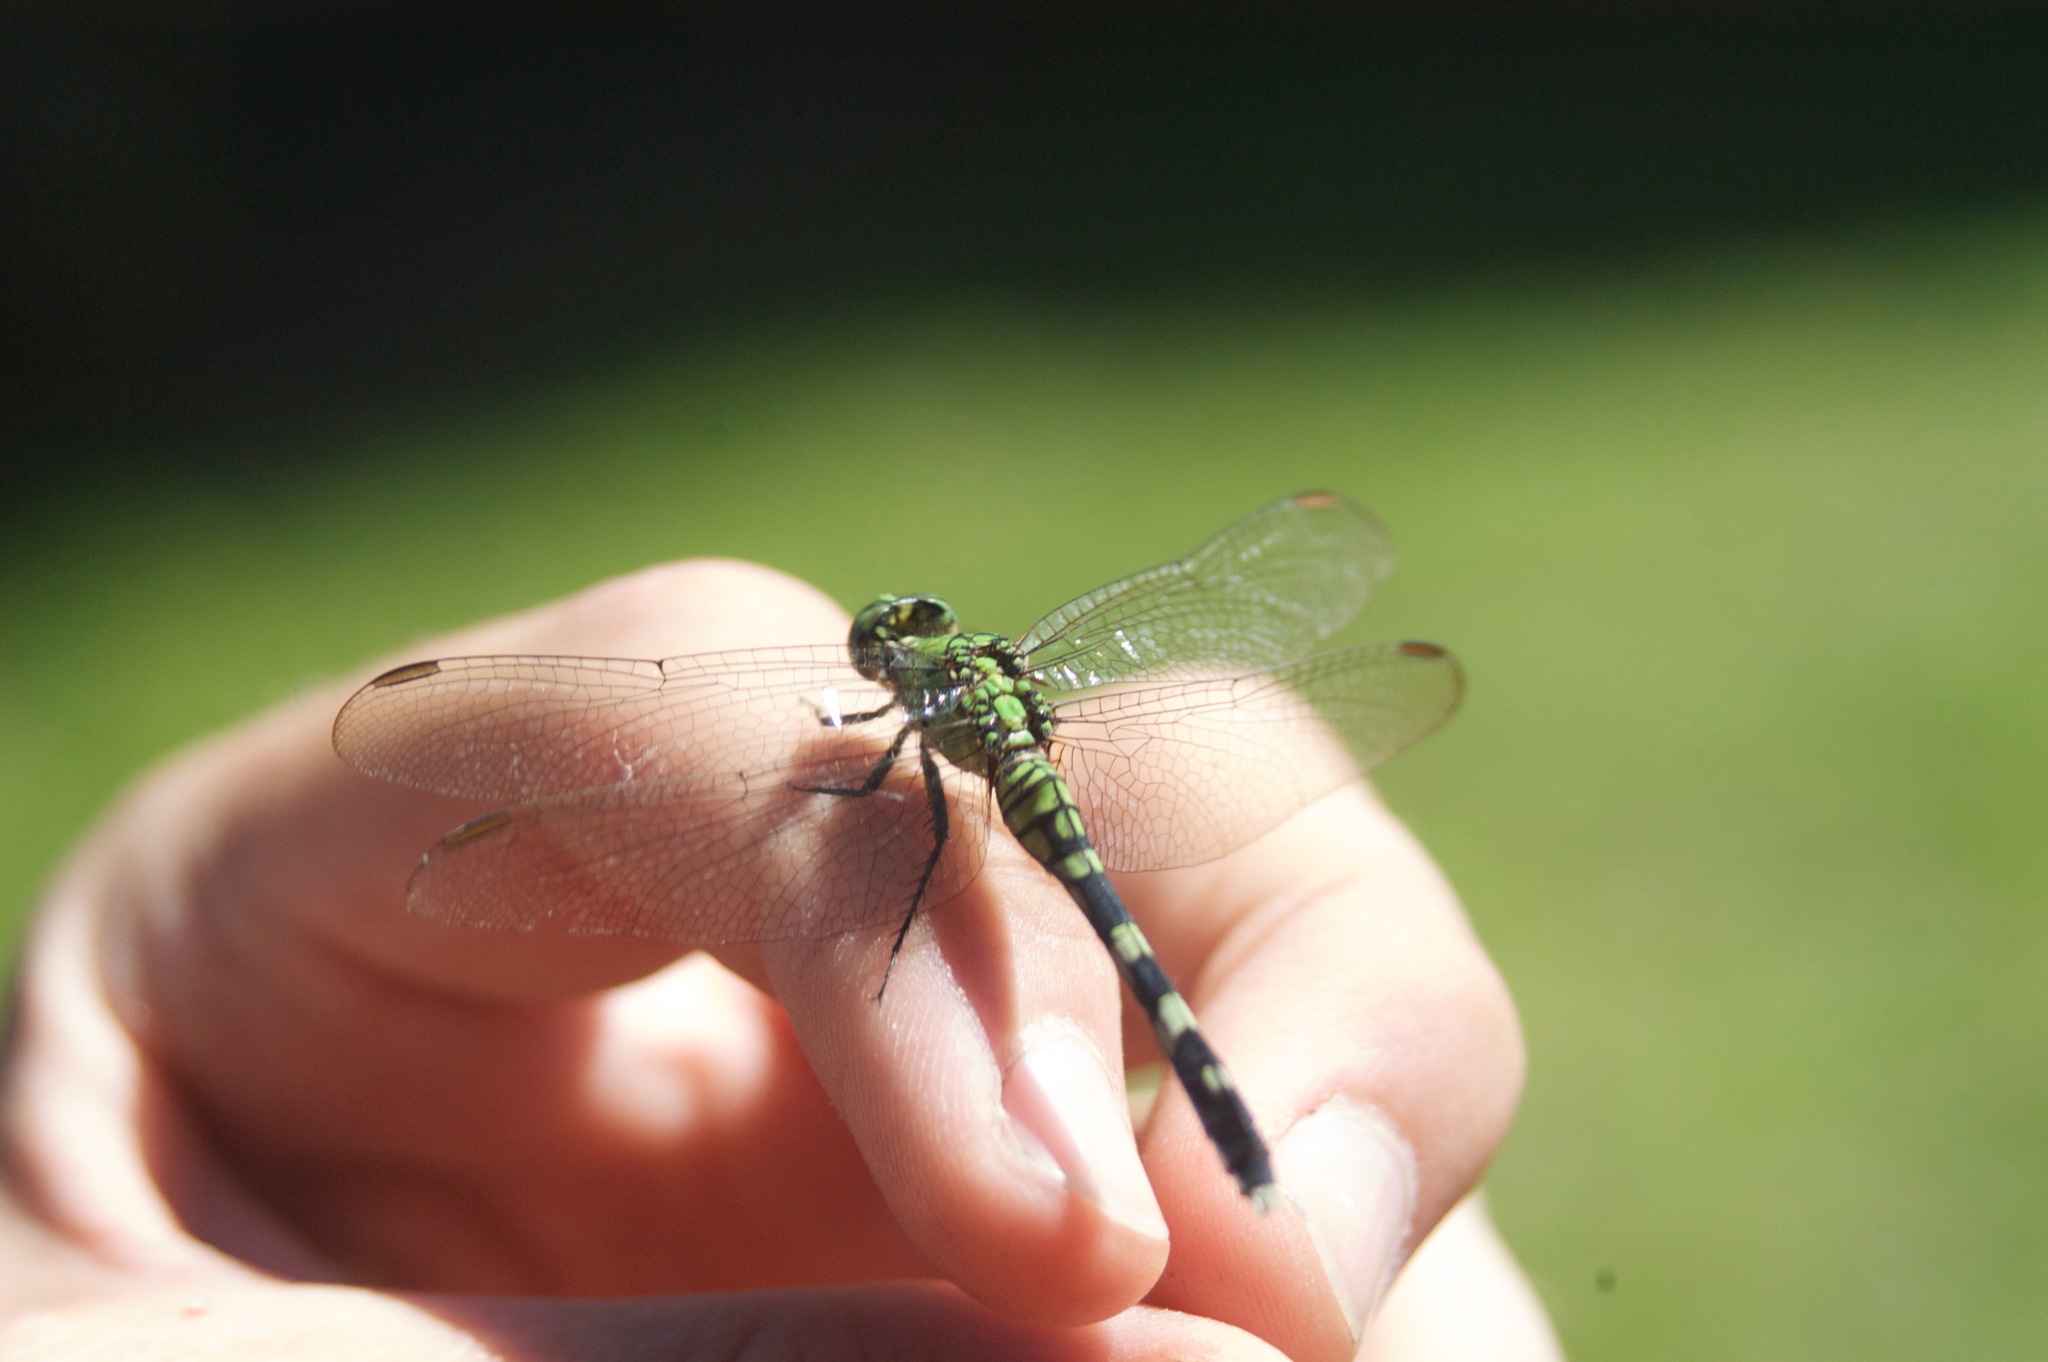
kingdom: Animalia
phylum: Arthropoda
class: Insecta
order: Odonata
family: Libellulidae
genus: Erythemis
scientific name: Erythemis simplicicollis
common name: Eastern pondhawk
